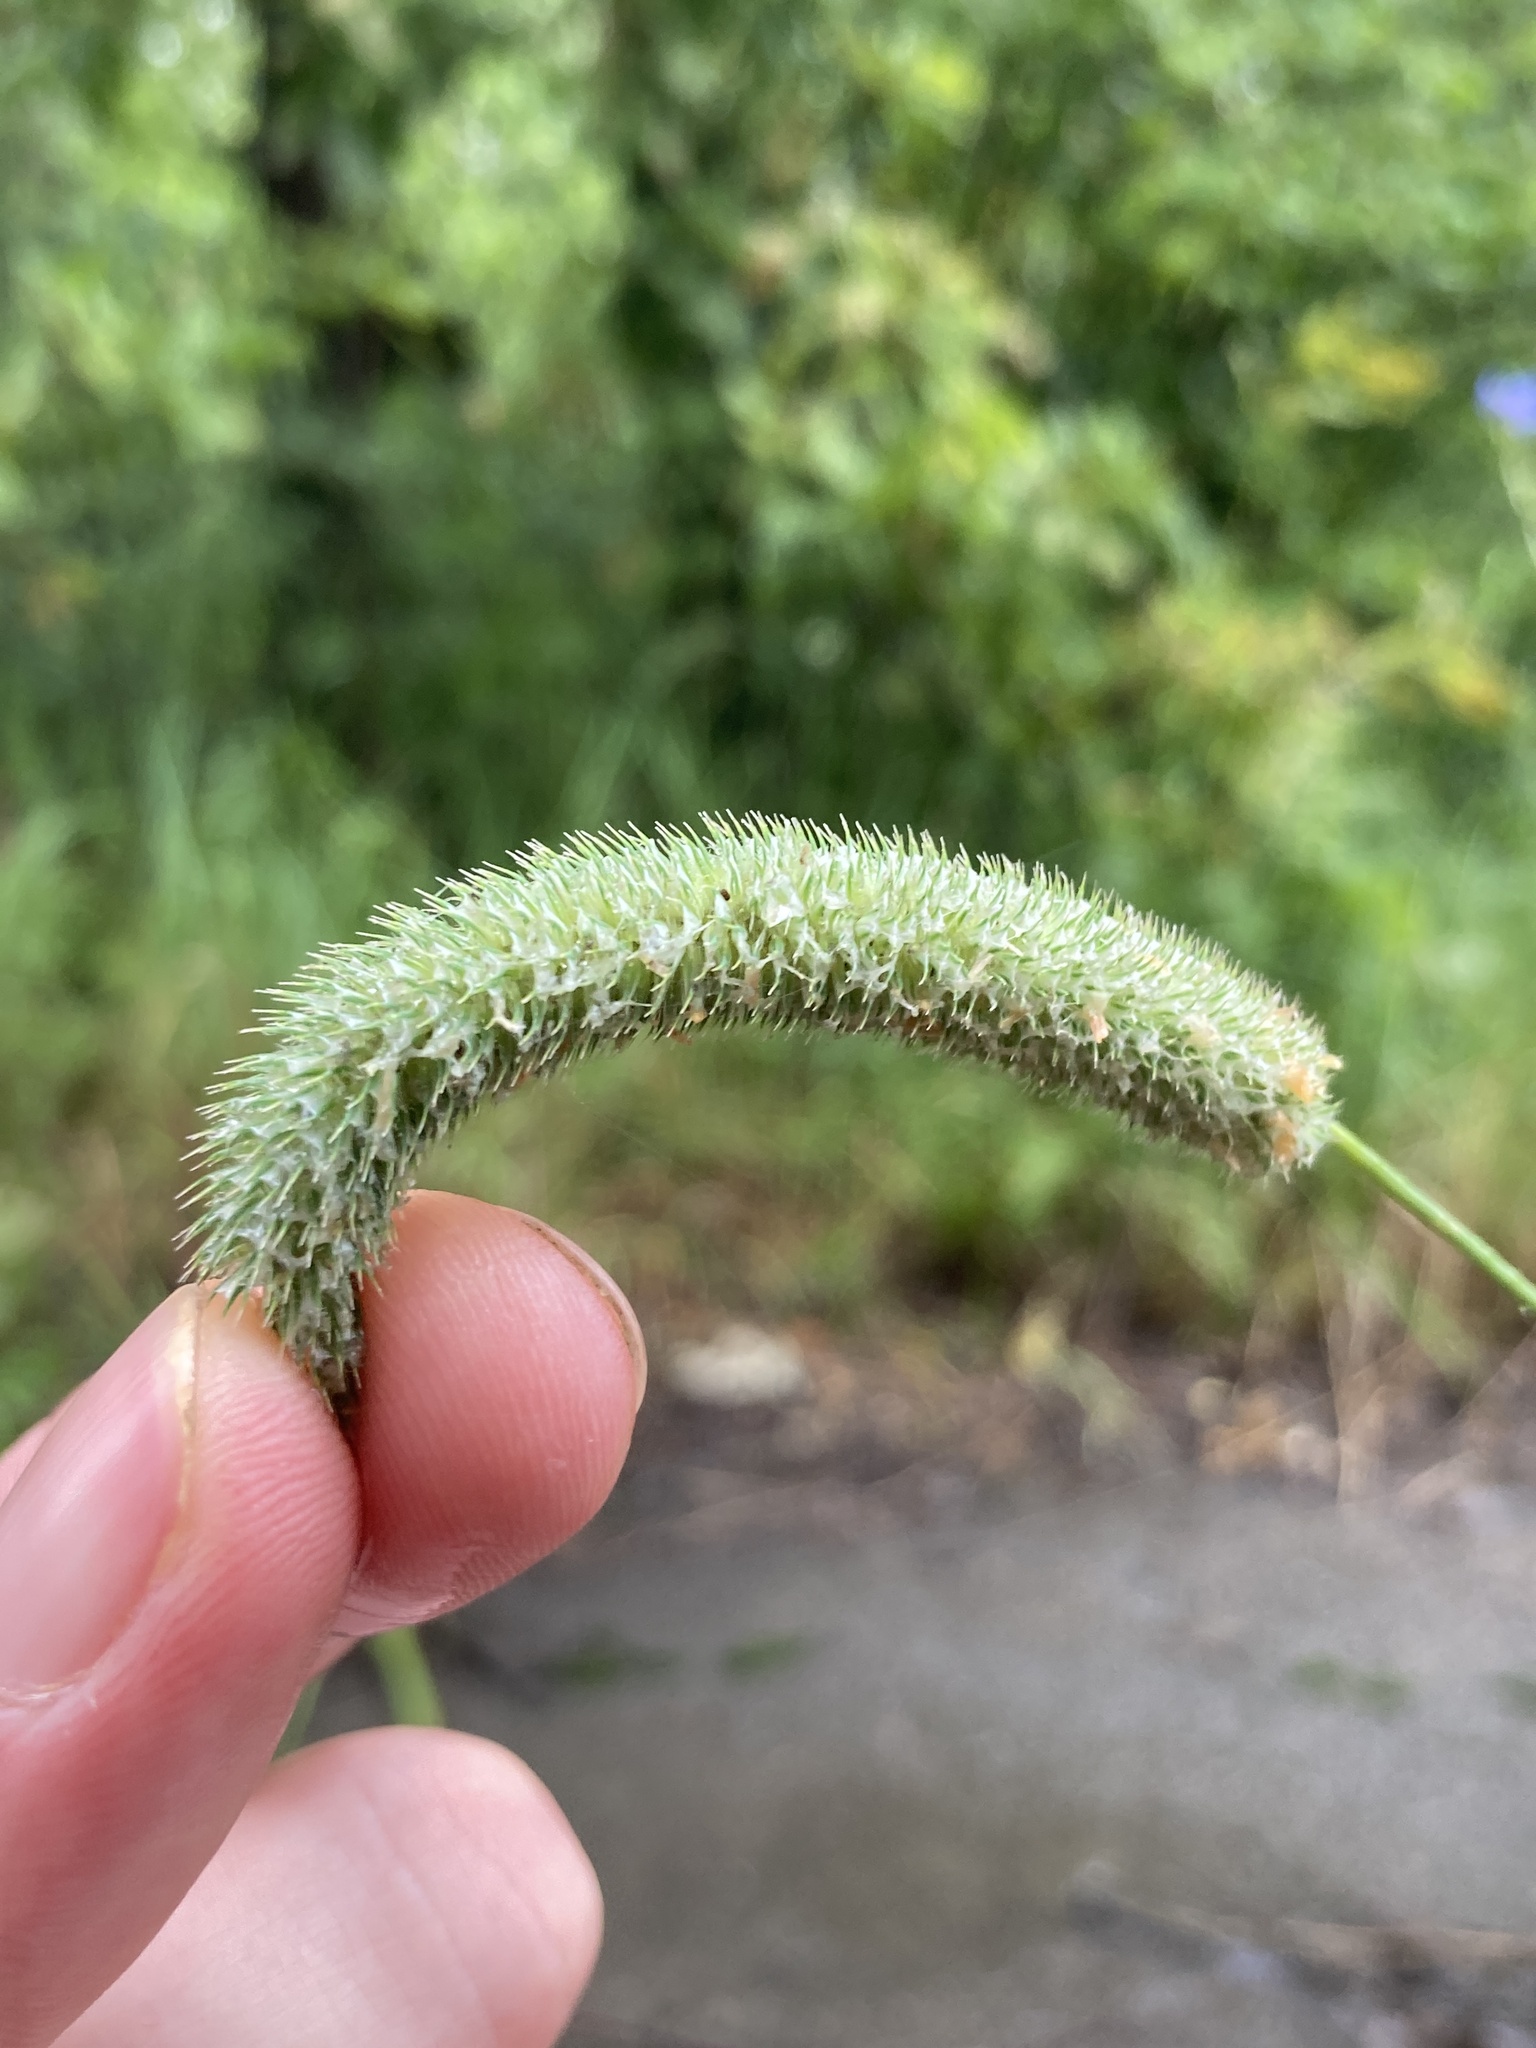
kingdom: Plantae
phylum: Tracheophyta
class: Liliopsida
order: Poales
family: Poaceae
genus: Phleum
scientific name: Phleum pratense
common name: Timothy grass
